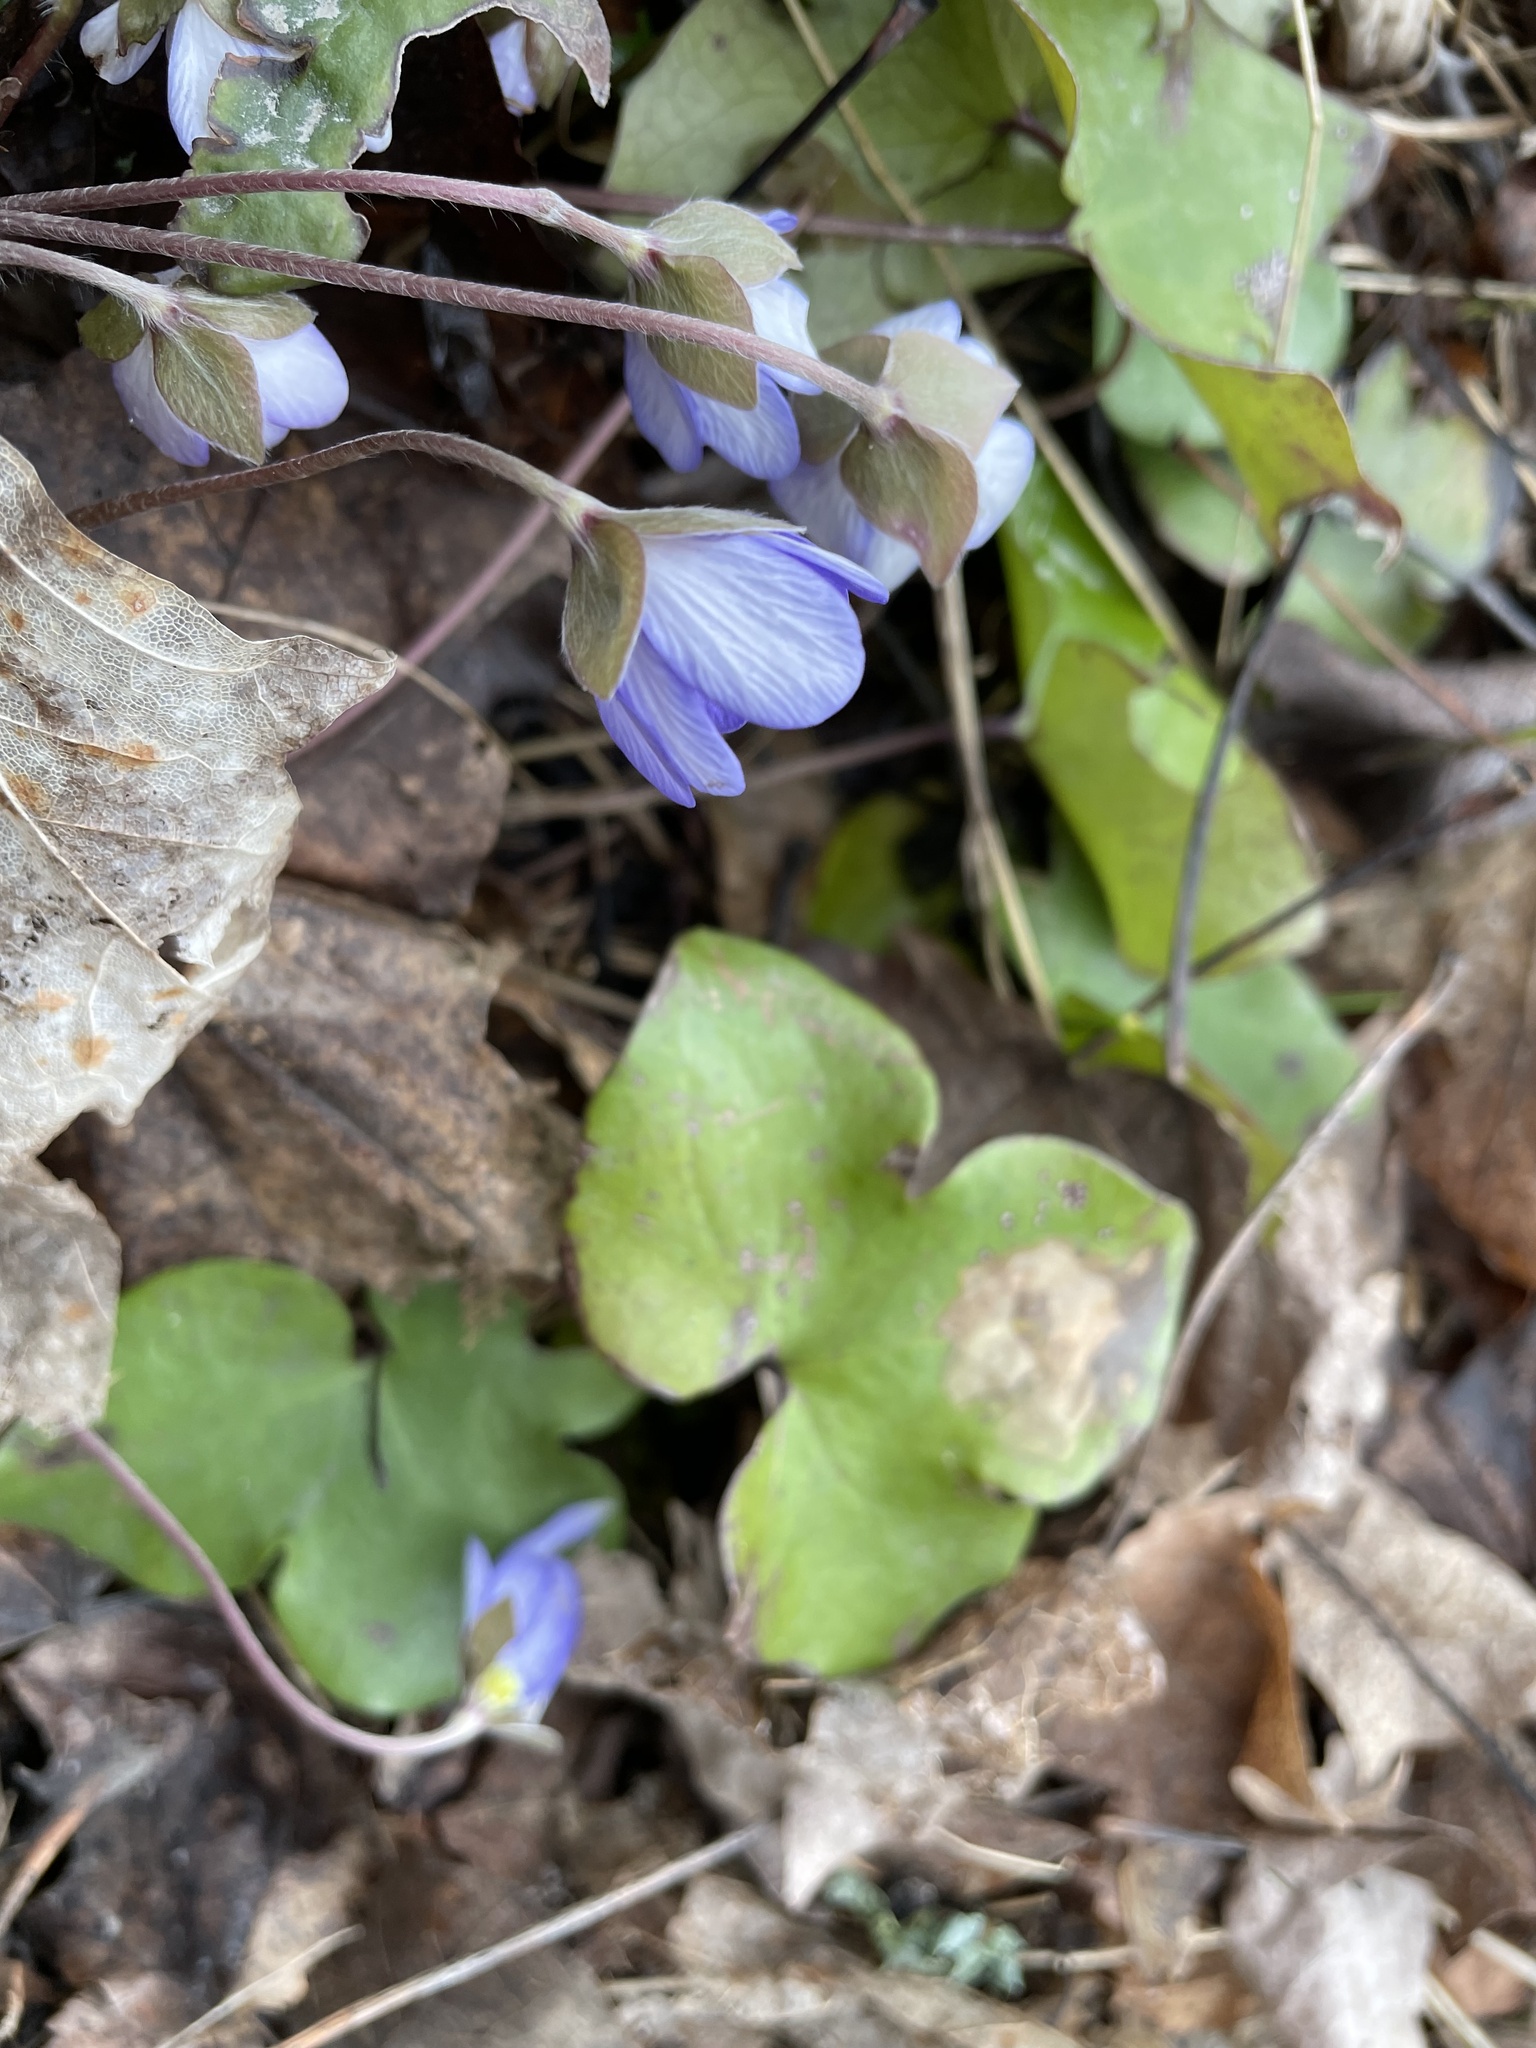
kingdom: Plantae
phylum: Tracheophyta
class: Magnoliopsida
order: Ranunculales
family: Ranunculaceae
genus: Hepatica
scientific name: Hepatica nobilis
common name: Liverleaf
